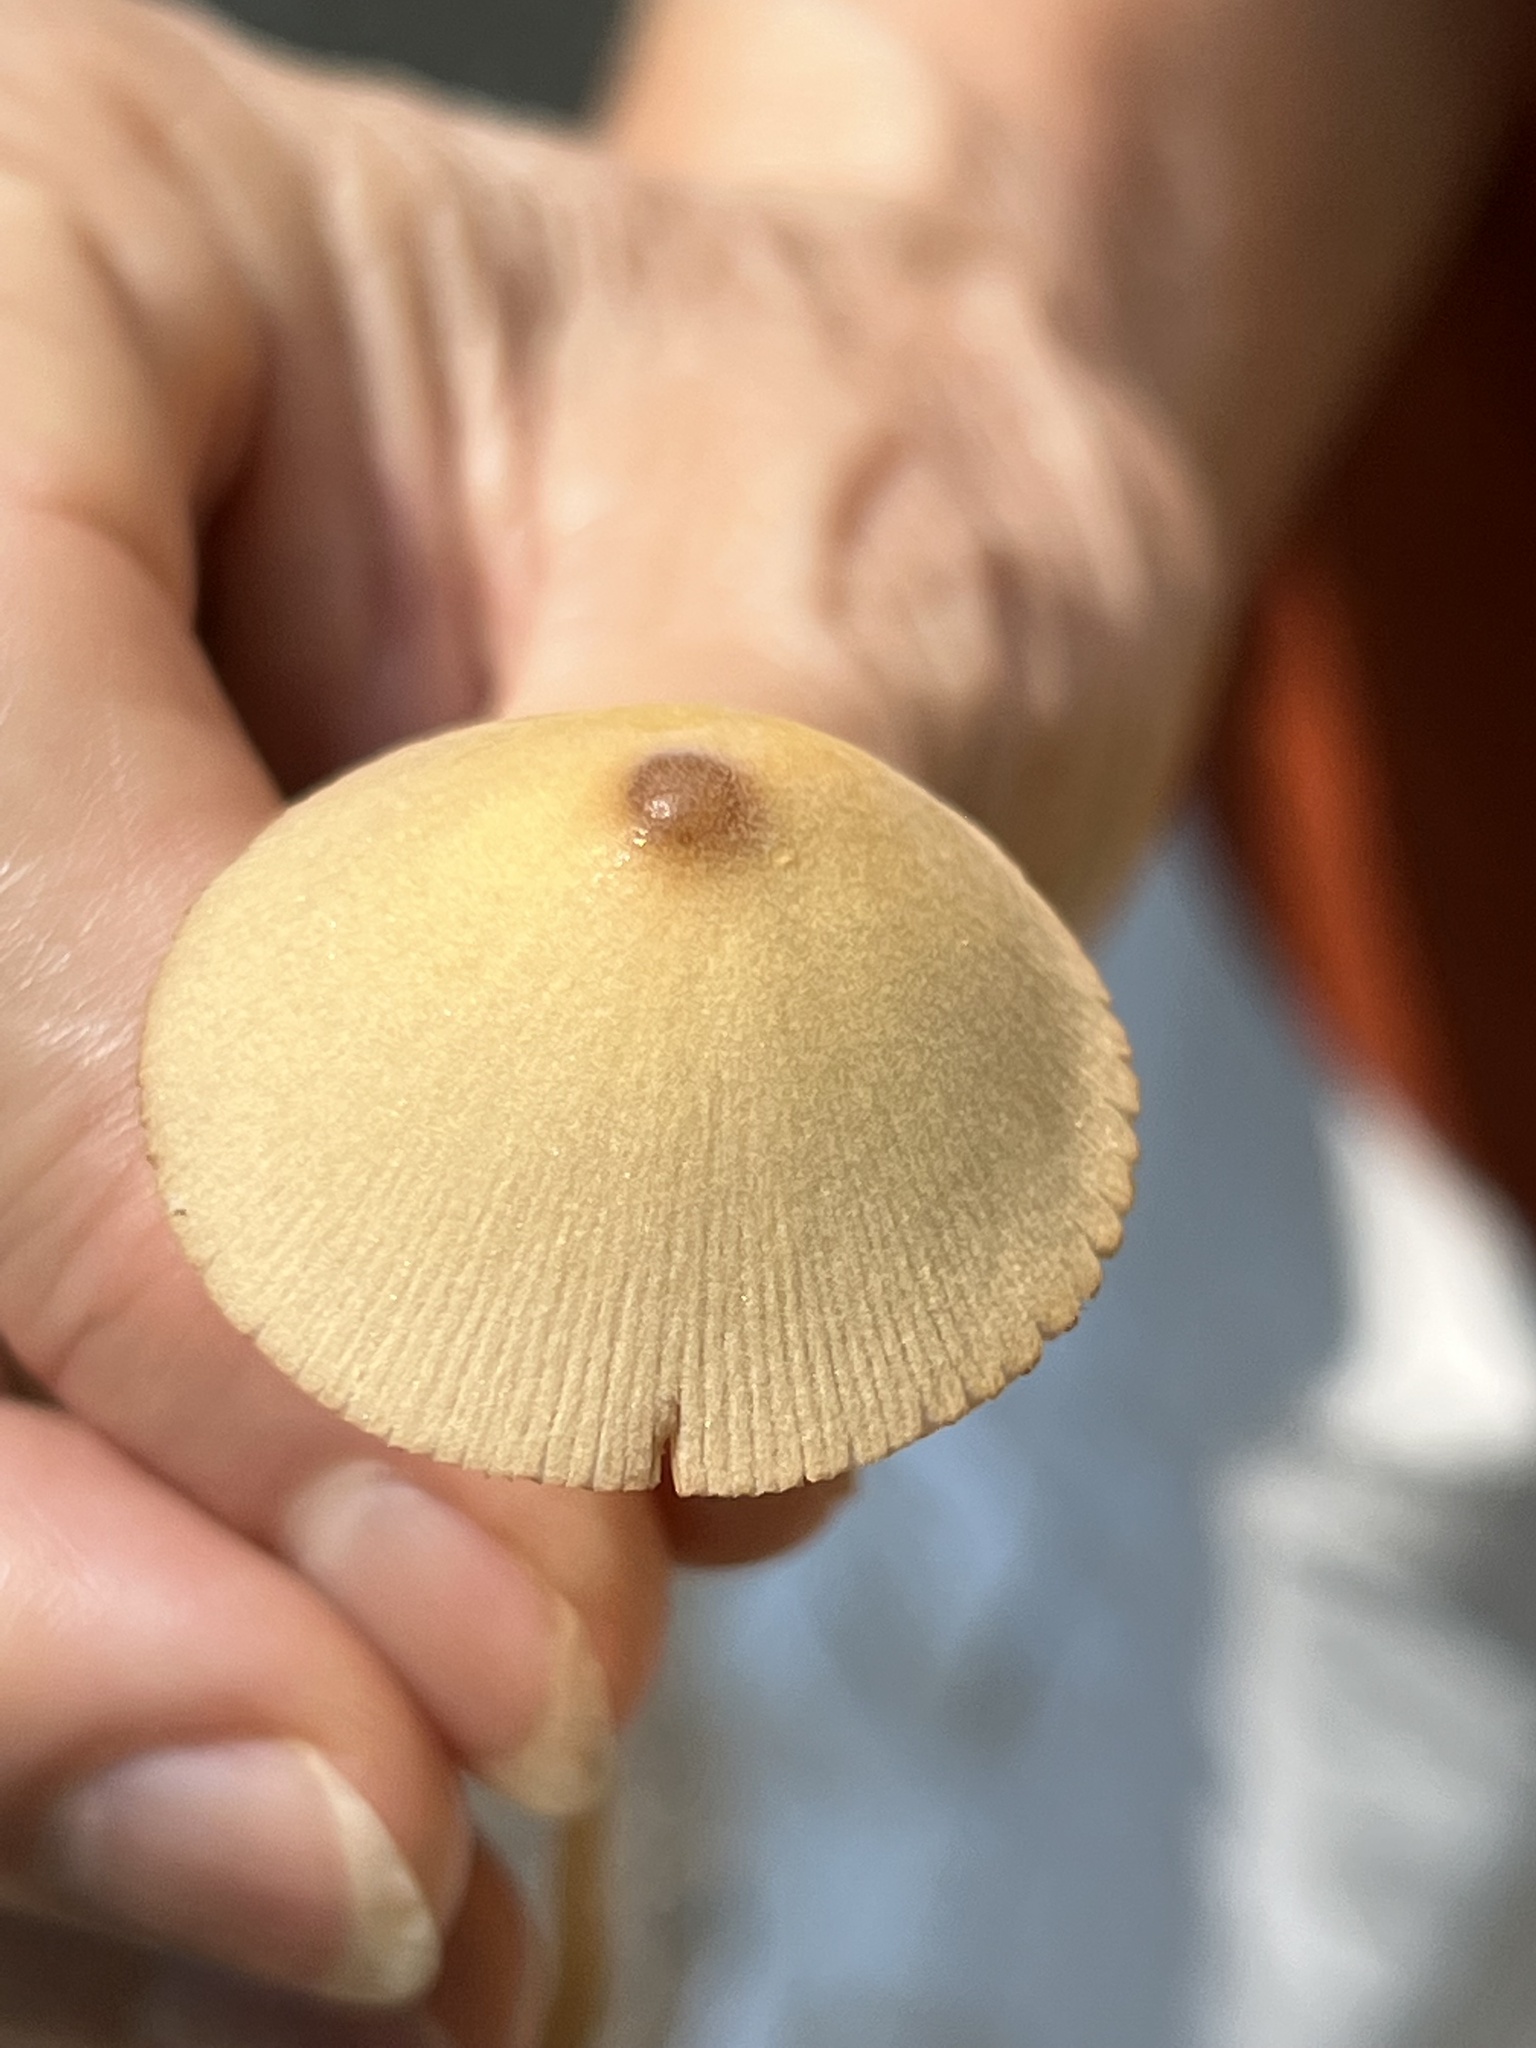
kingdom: Fungi
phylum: Basidiomycota
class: Agaricomycetes
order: Agaricales
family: Bolbitiaceae
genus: Conocybe
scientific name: Conocybe apala
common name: Milky conecap
